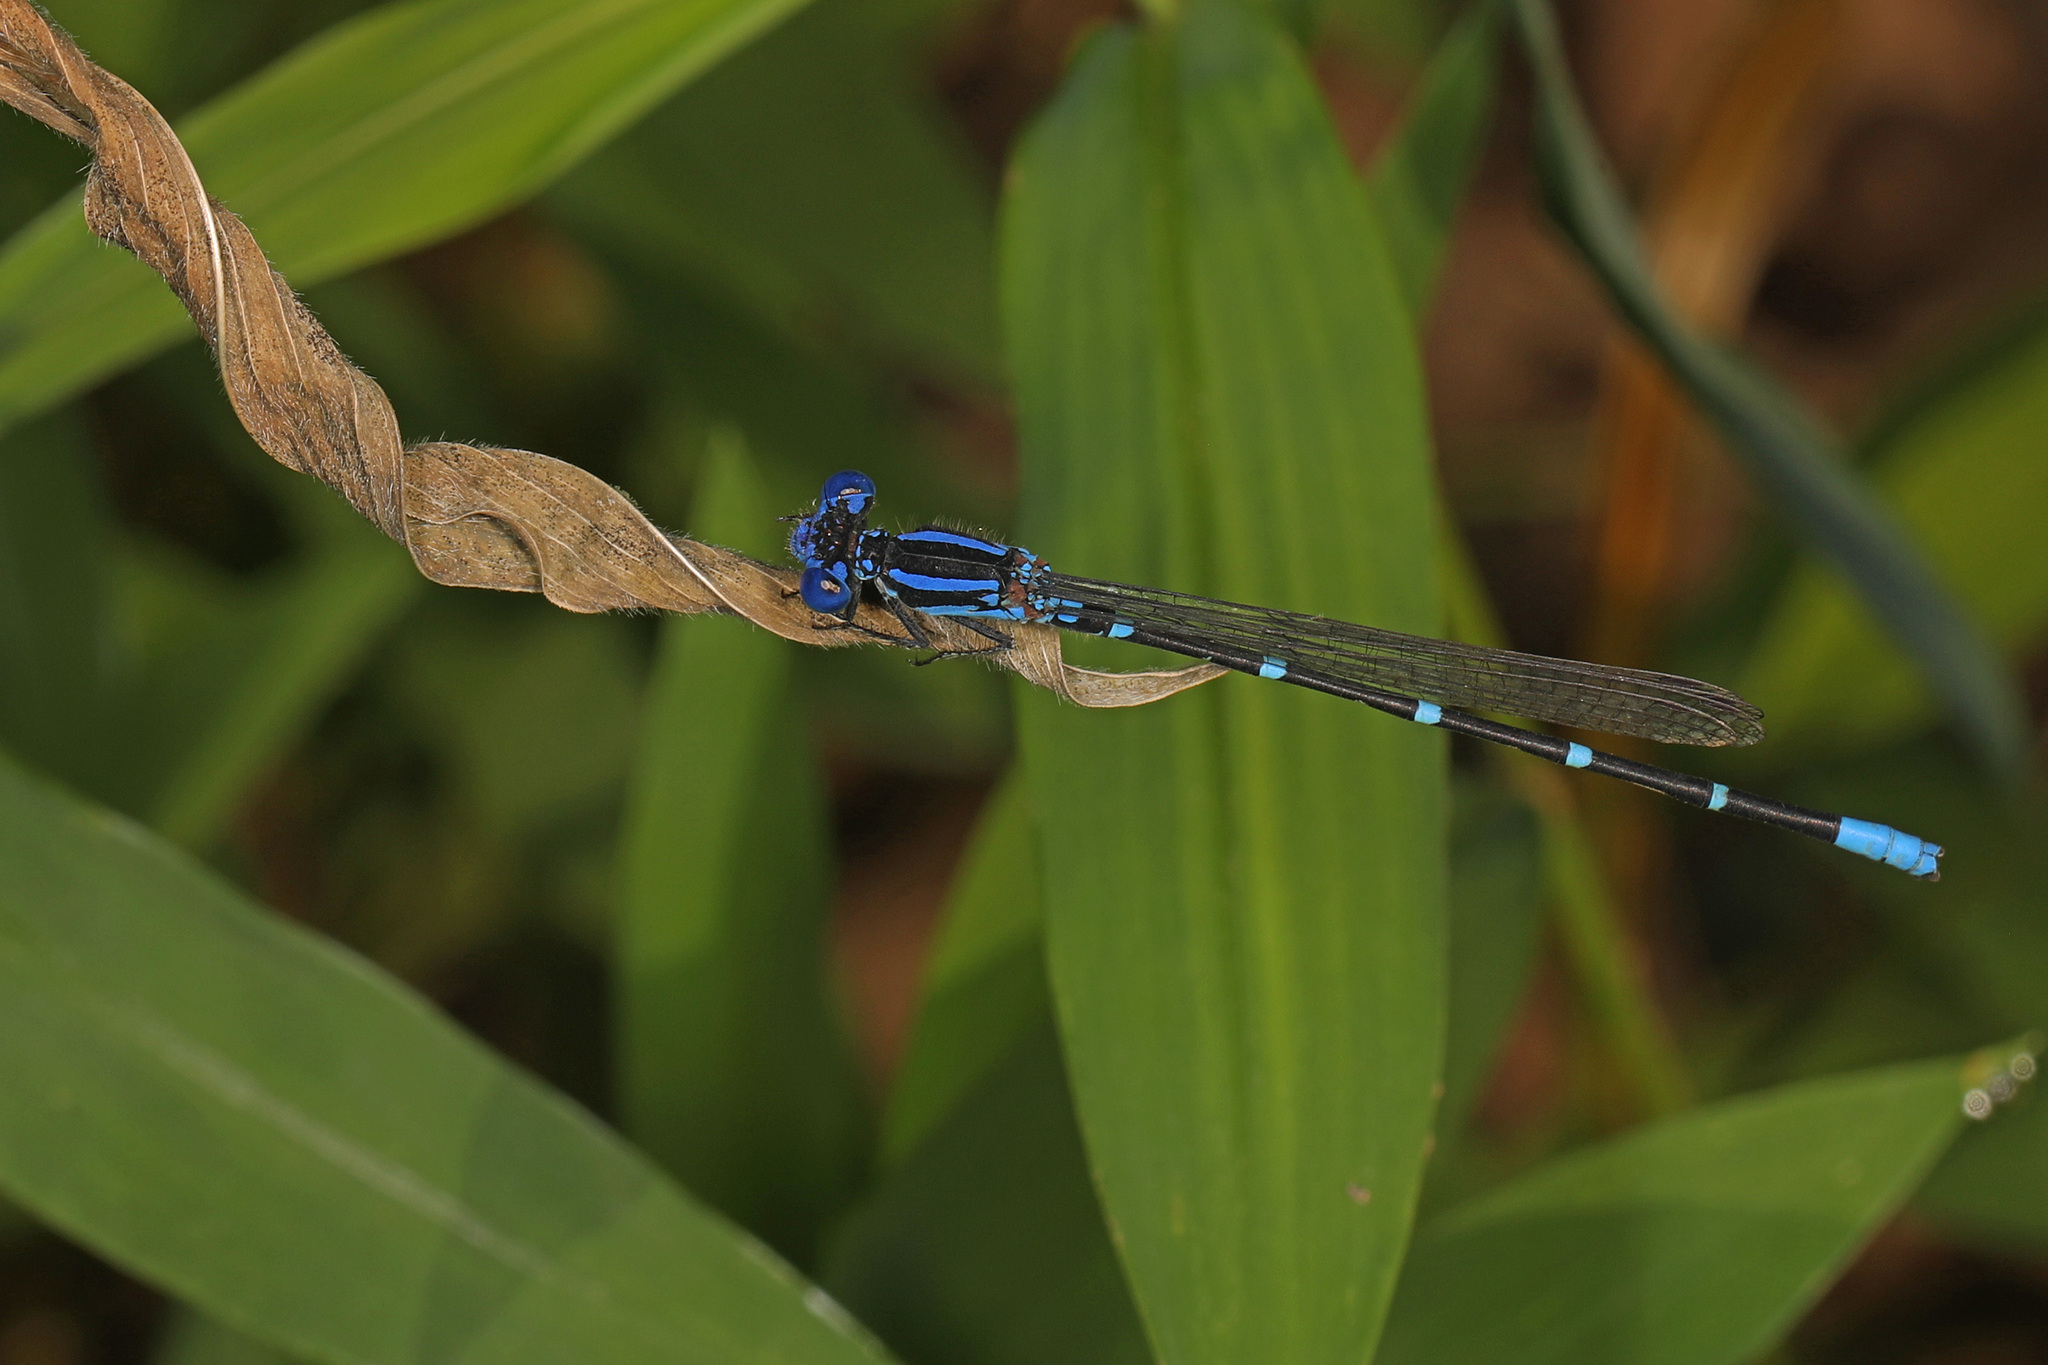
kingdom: Animalia
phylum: Arthropoda
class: Insecta
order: Odonata
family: Coenagrionidae
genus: Argia
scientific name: Argia sedula
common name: Blue-ringed dancer
